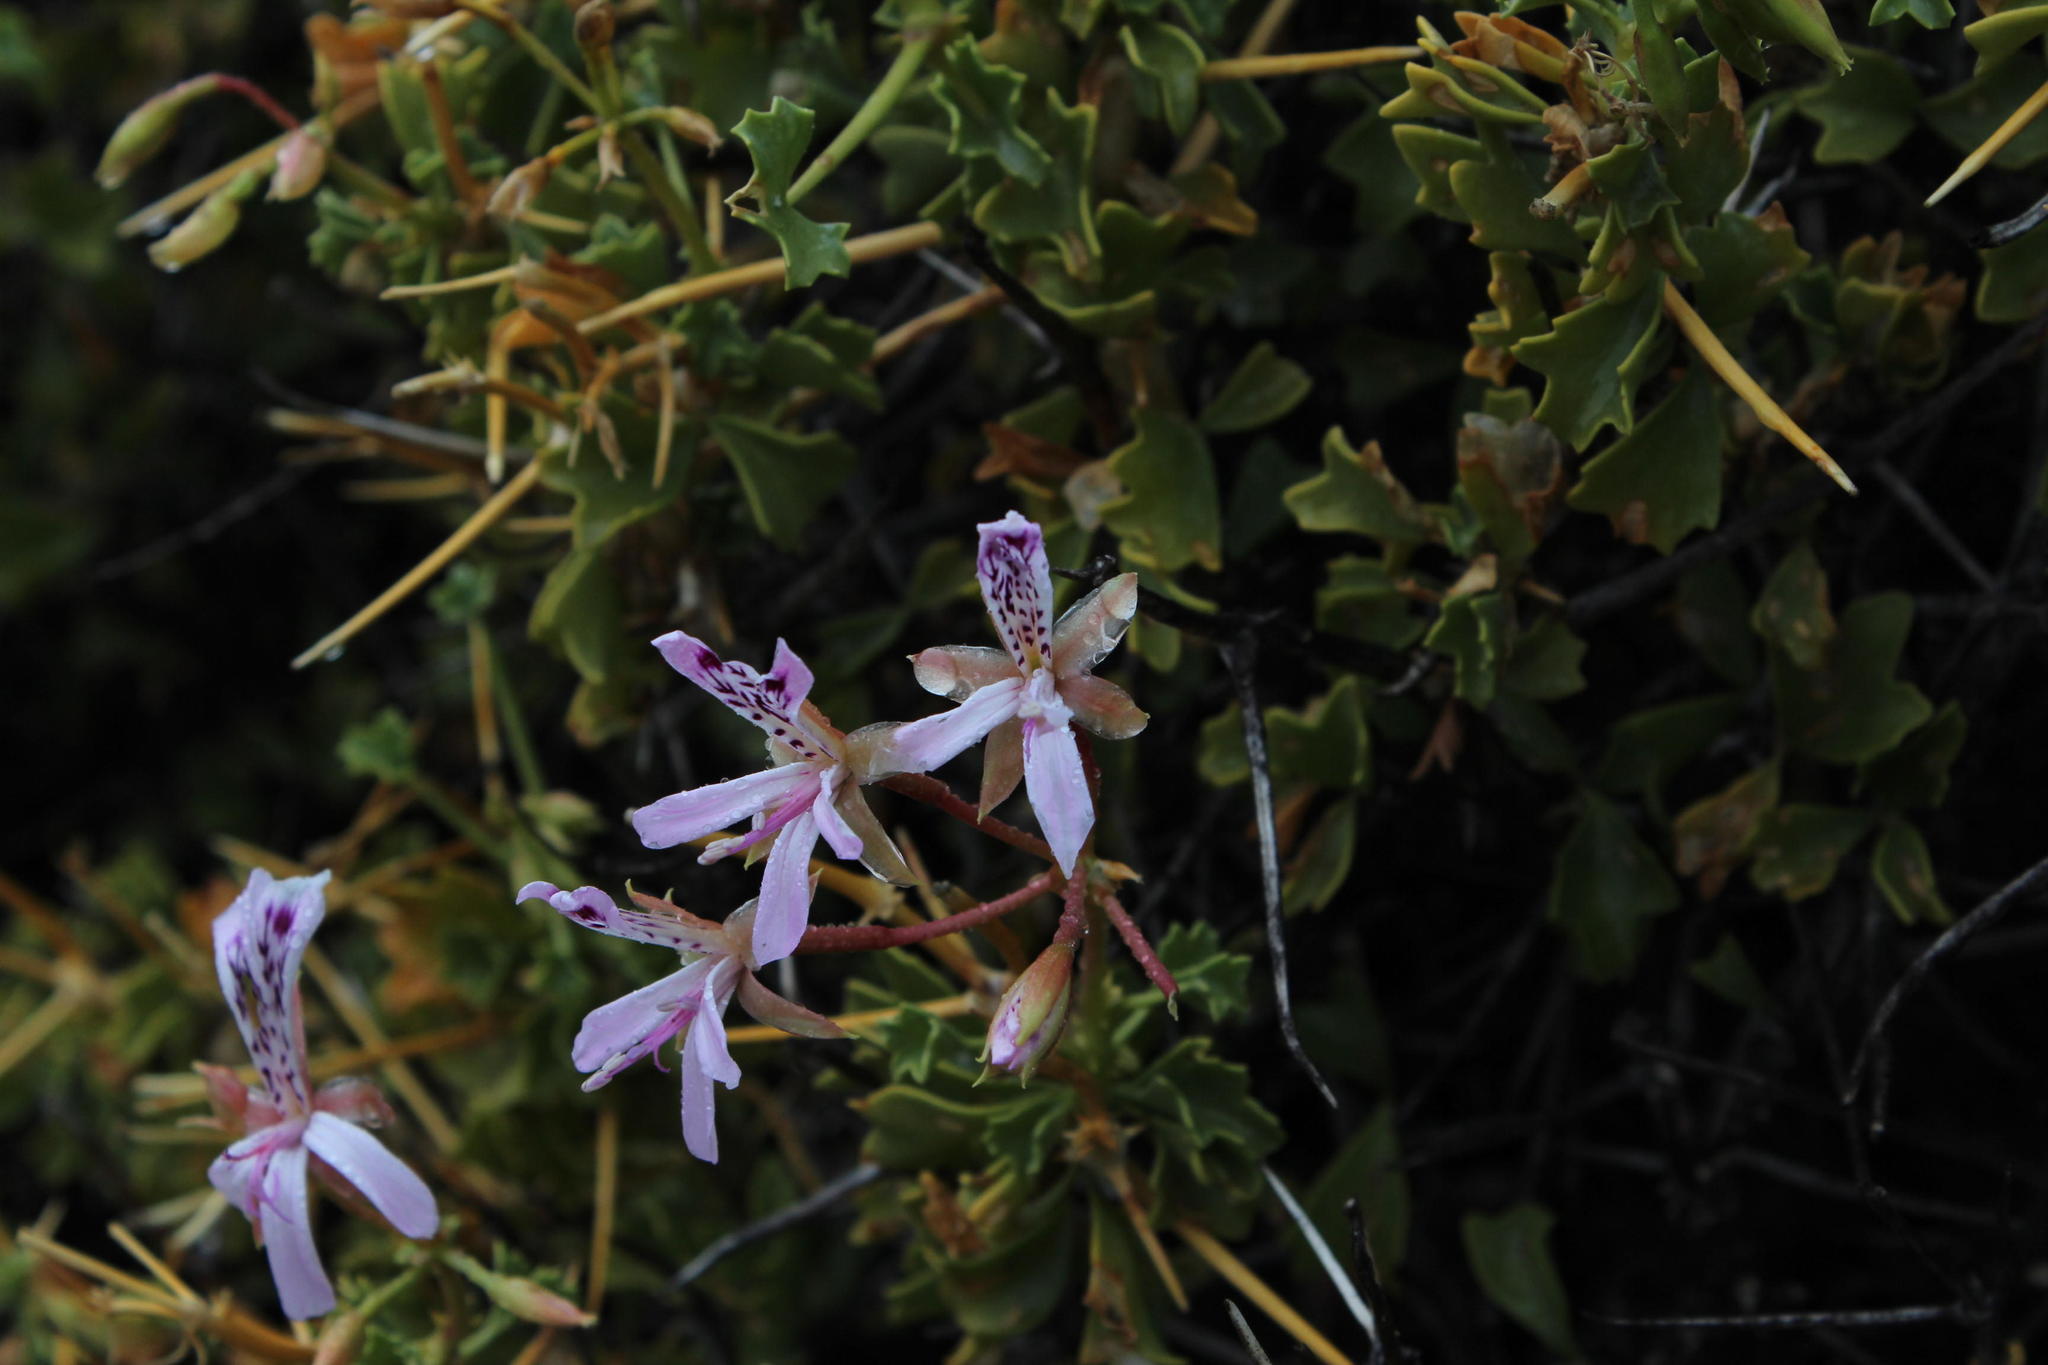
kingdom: Plantae
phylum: Tracheophyta
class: Magnoliopsida
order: Geraniales
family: Geraniaceae
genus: Pelargonium
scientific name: Pelargonium spinosum
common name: Thorny pelargonium
